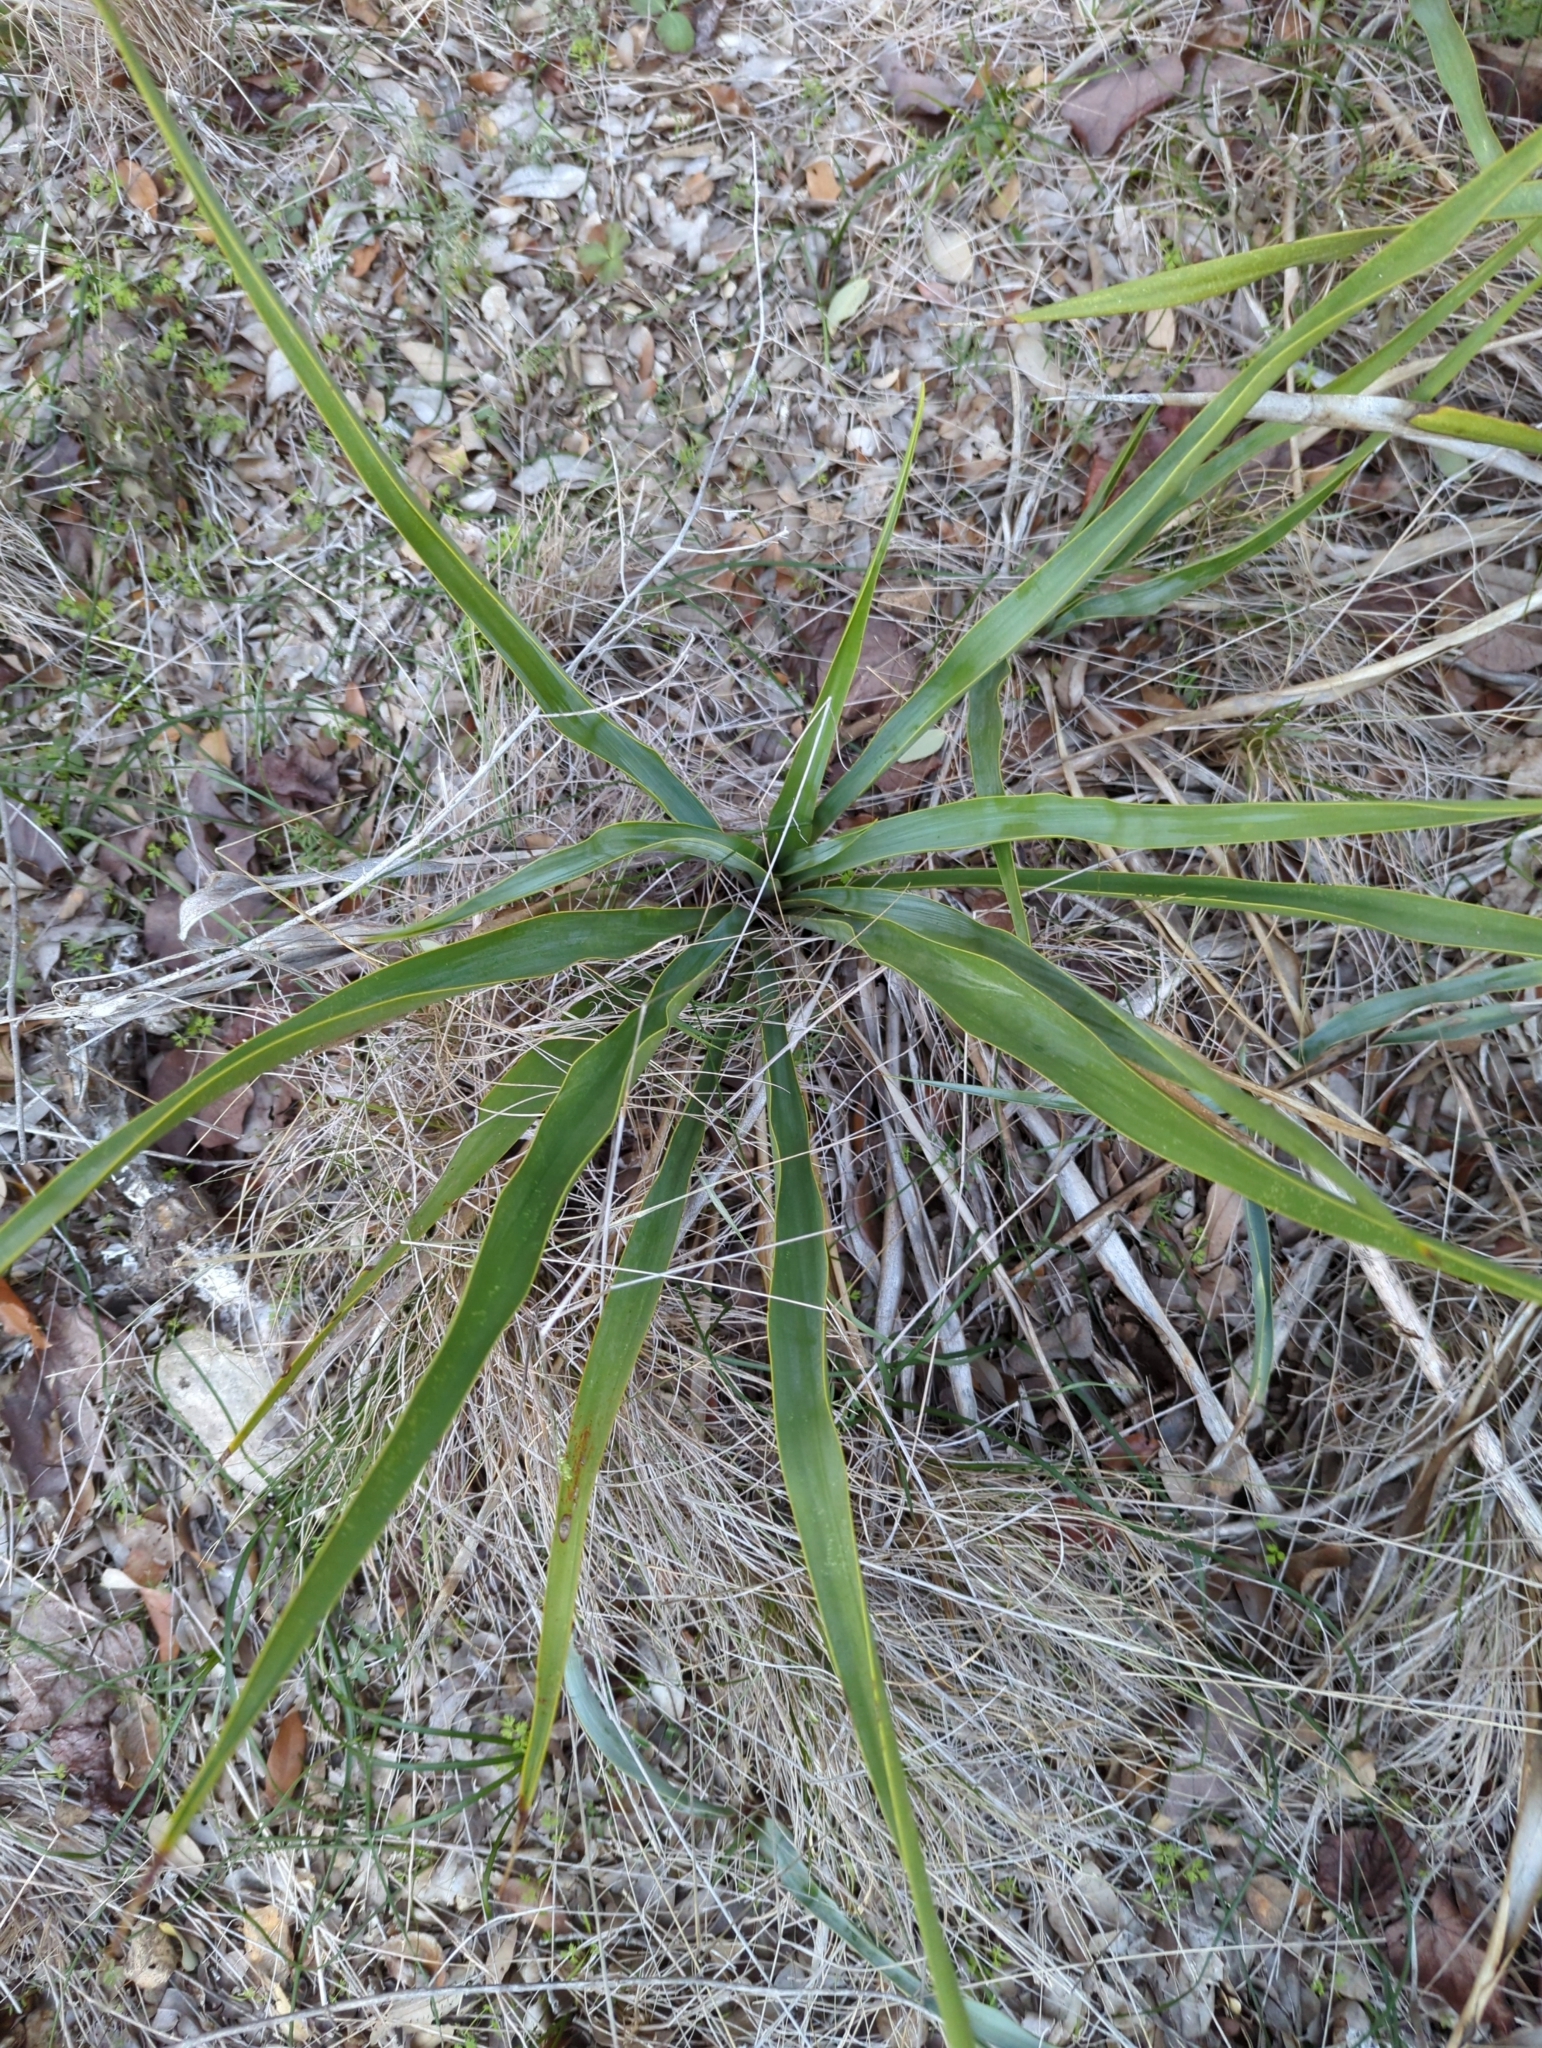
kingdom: Plantae
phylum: Tracheophyta
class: Liliopsida
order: Asparagales
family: Asparagaceae
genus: Yucca
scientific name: Yucca rupicola
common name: Twisted-leaf spanish-dagger
